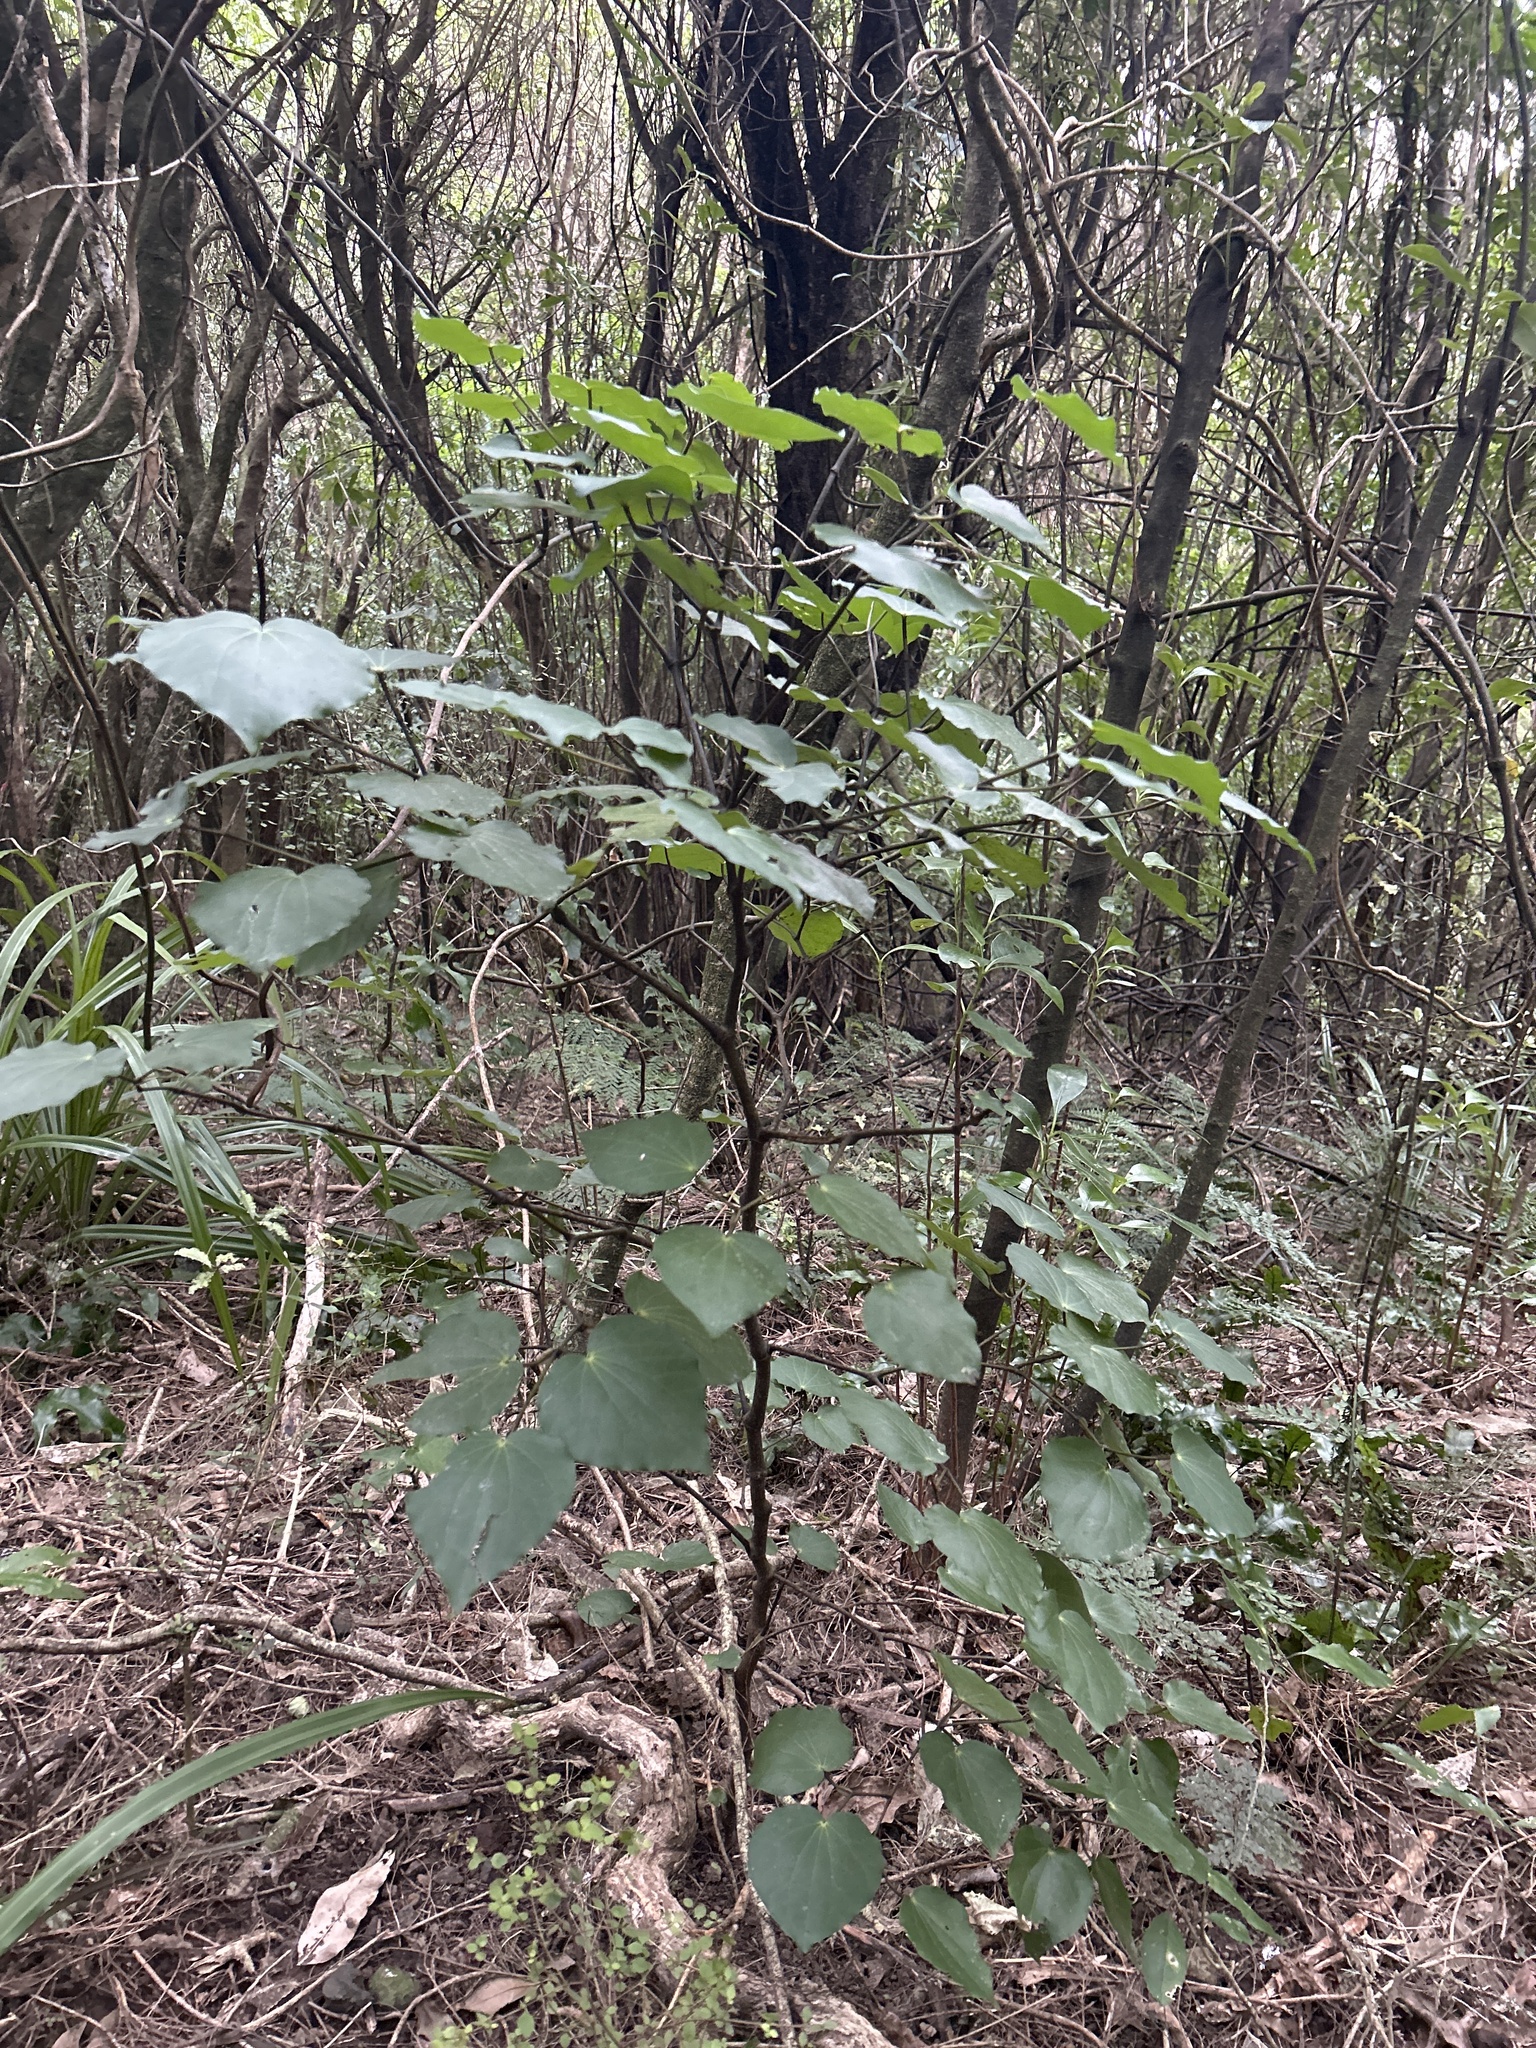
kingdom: Plantae
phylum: Tracheophyta
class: Magnoliopsida
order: Piperales
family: Piperaceae
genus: Macropiper
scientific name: Macropiper excelsum
